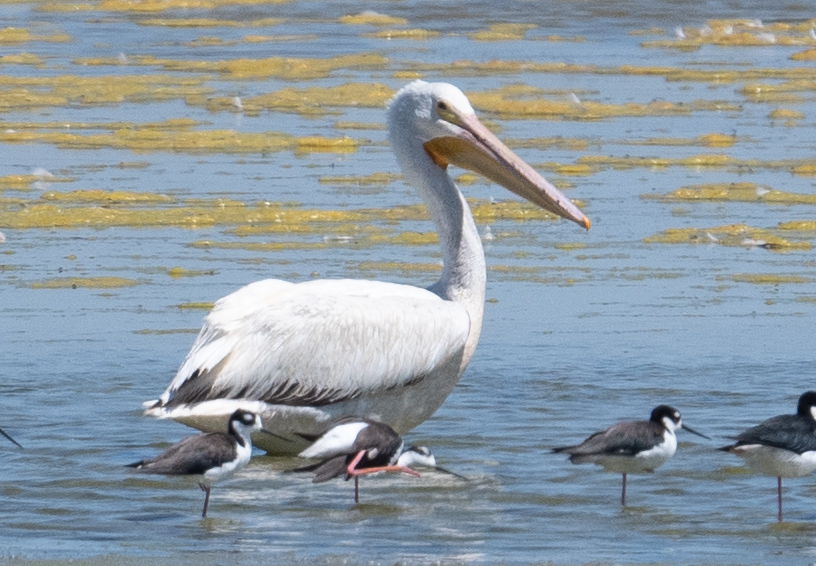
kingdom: Animalia
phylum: Chordata
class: Aves
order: Pelecaniformes
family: Pelecanidae
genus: Pelecanus
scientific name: Pelecanus erythrorhynchos
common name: American white pelican
